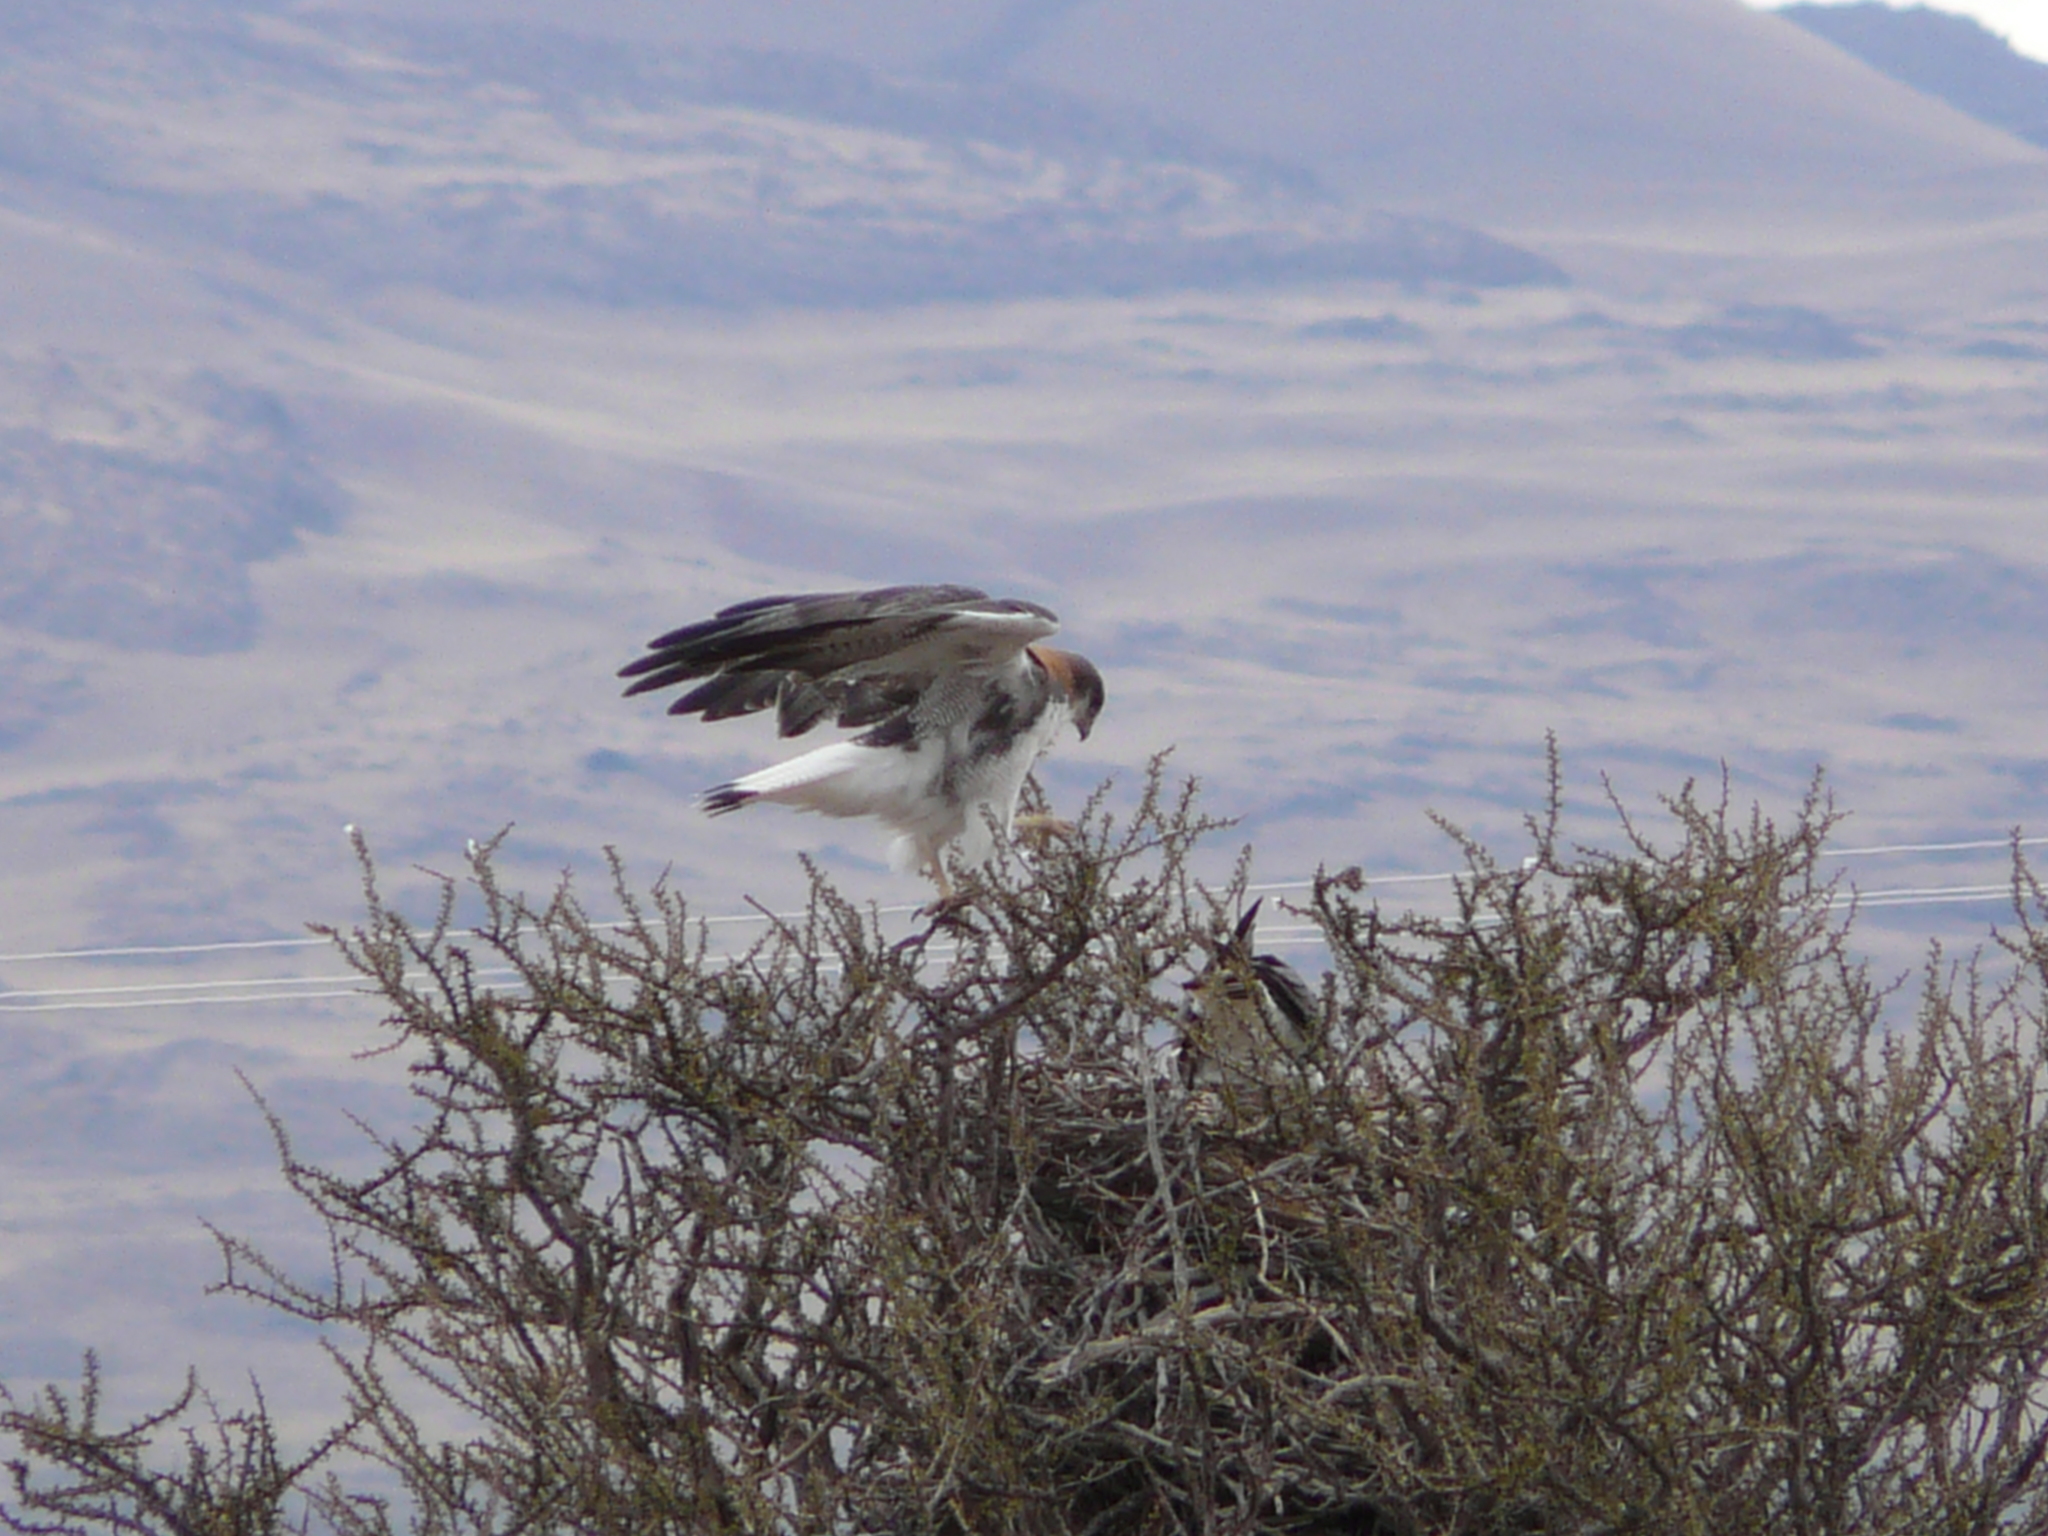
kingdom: Animalia
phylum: Chordata
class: Aves
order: Accipitriformes
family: Accipitridae
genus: Buteo
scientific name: Buteo polyosoma
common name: Variable hawk
